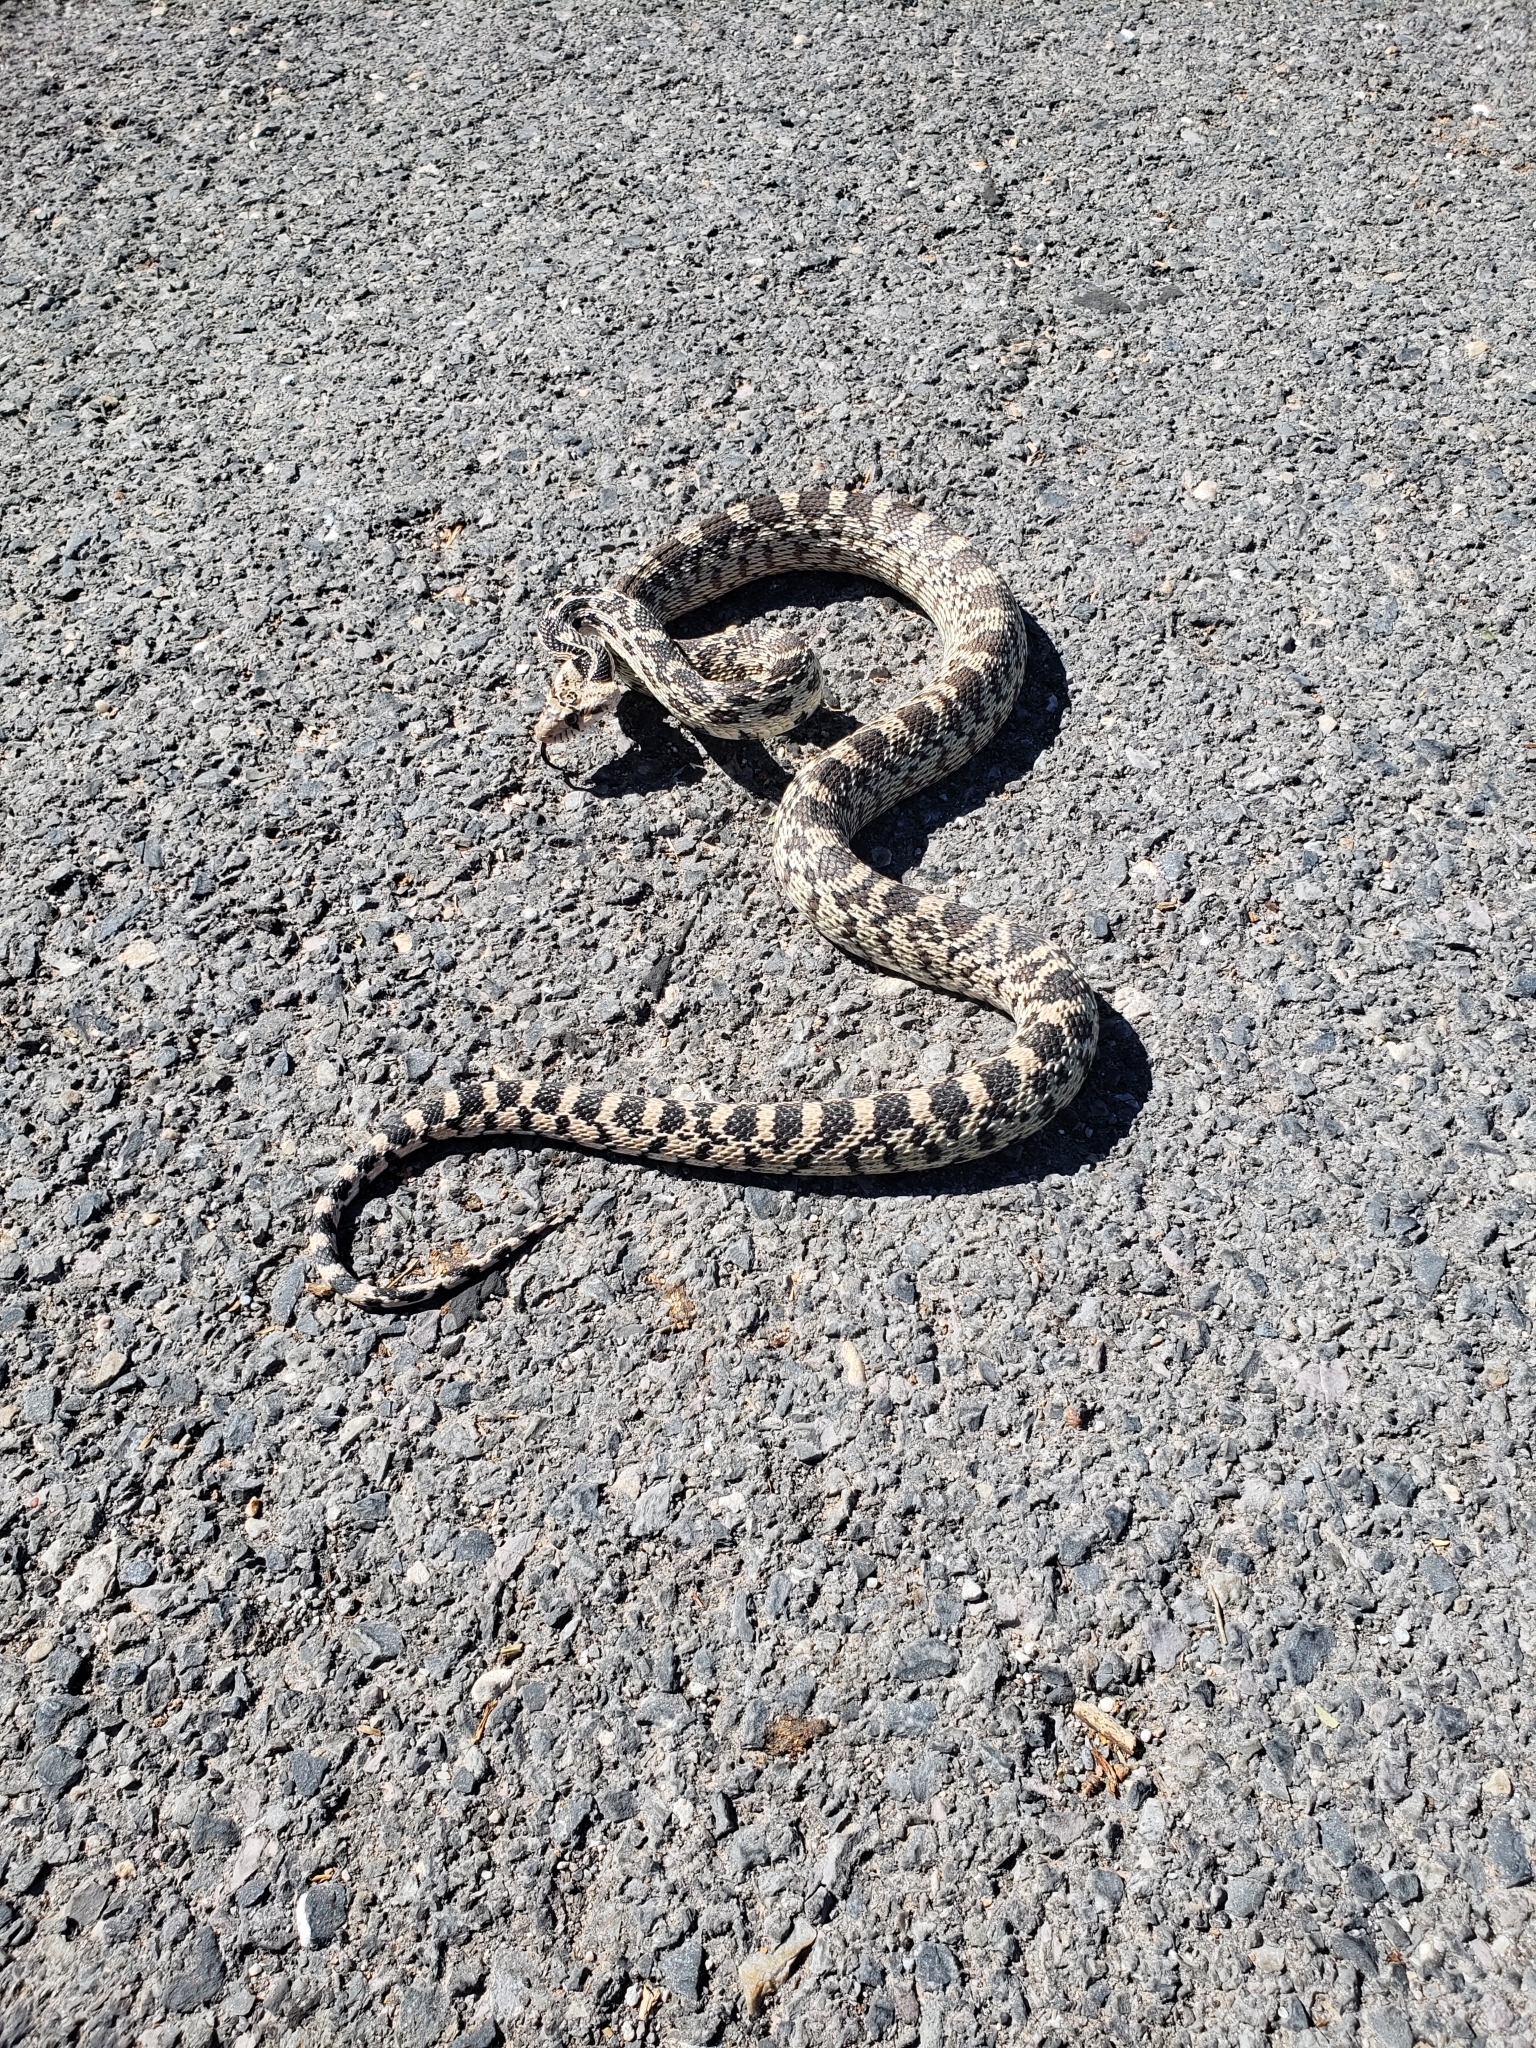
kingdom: Animalia
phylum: Chordata
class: Squamata
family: Colubridae
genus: Pituophis
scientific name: Pituophis catenifer
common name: Gopher snake
